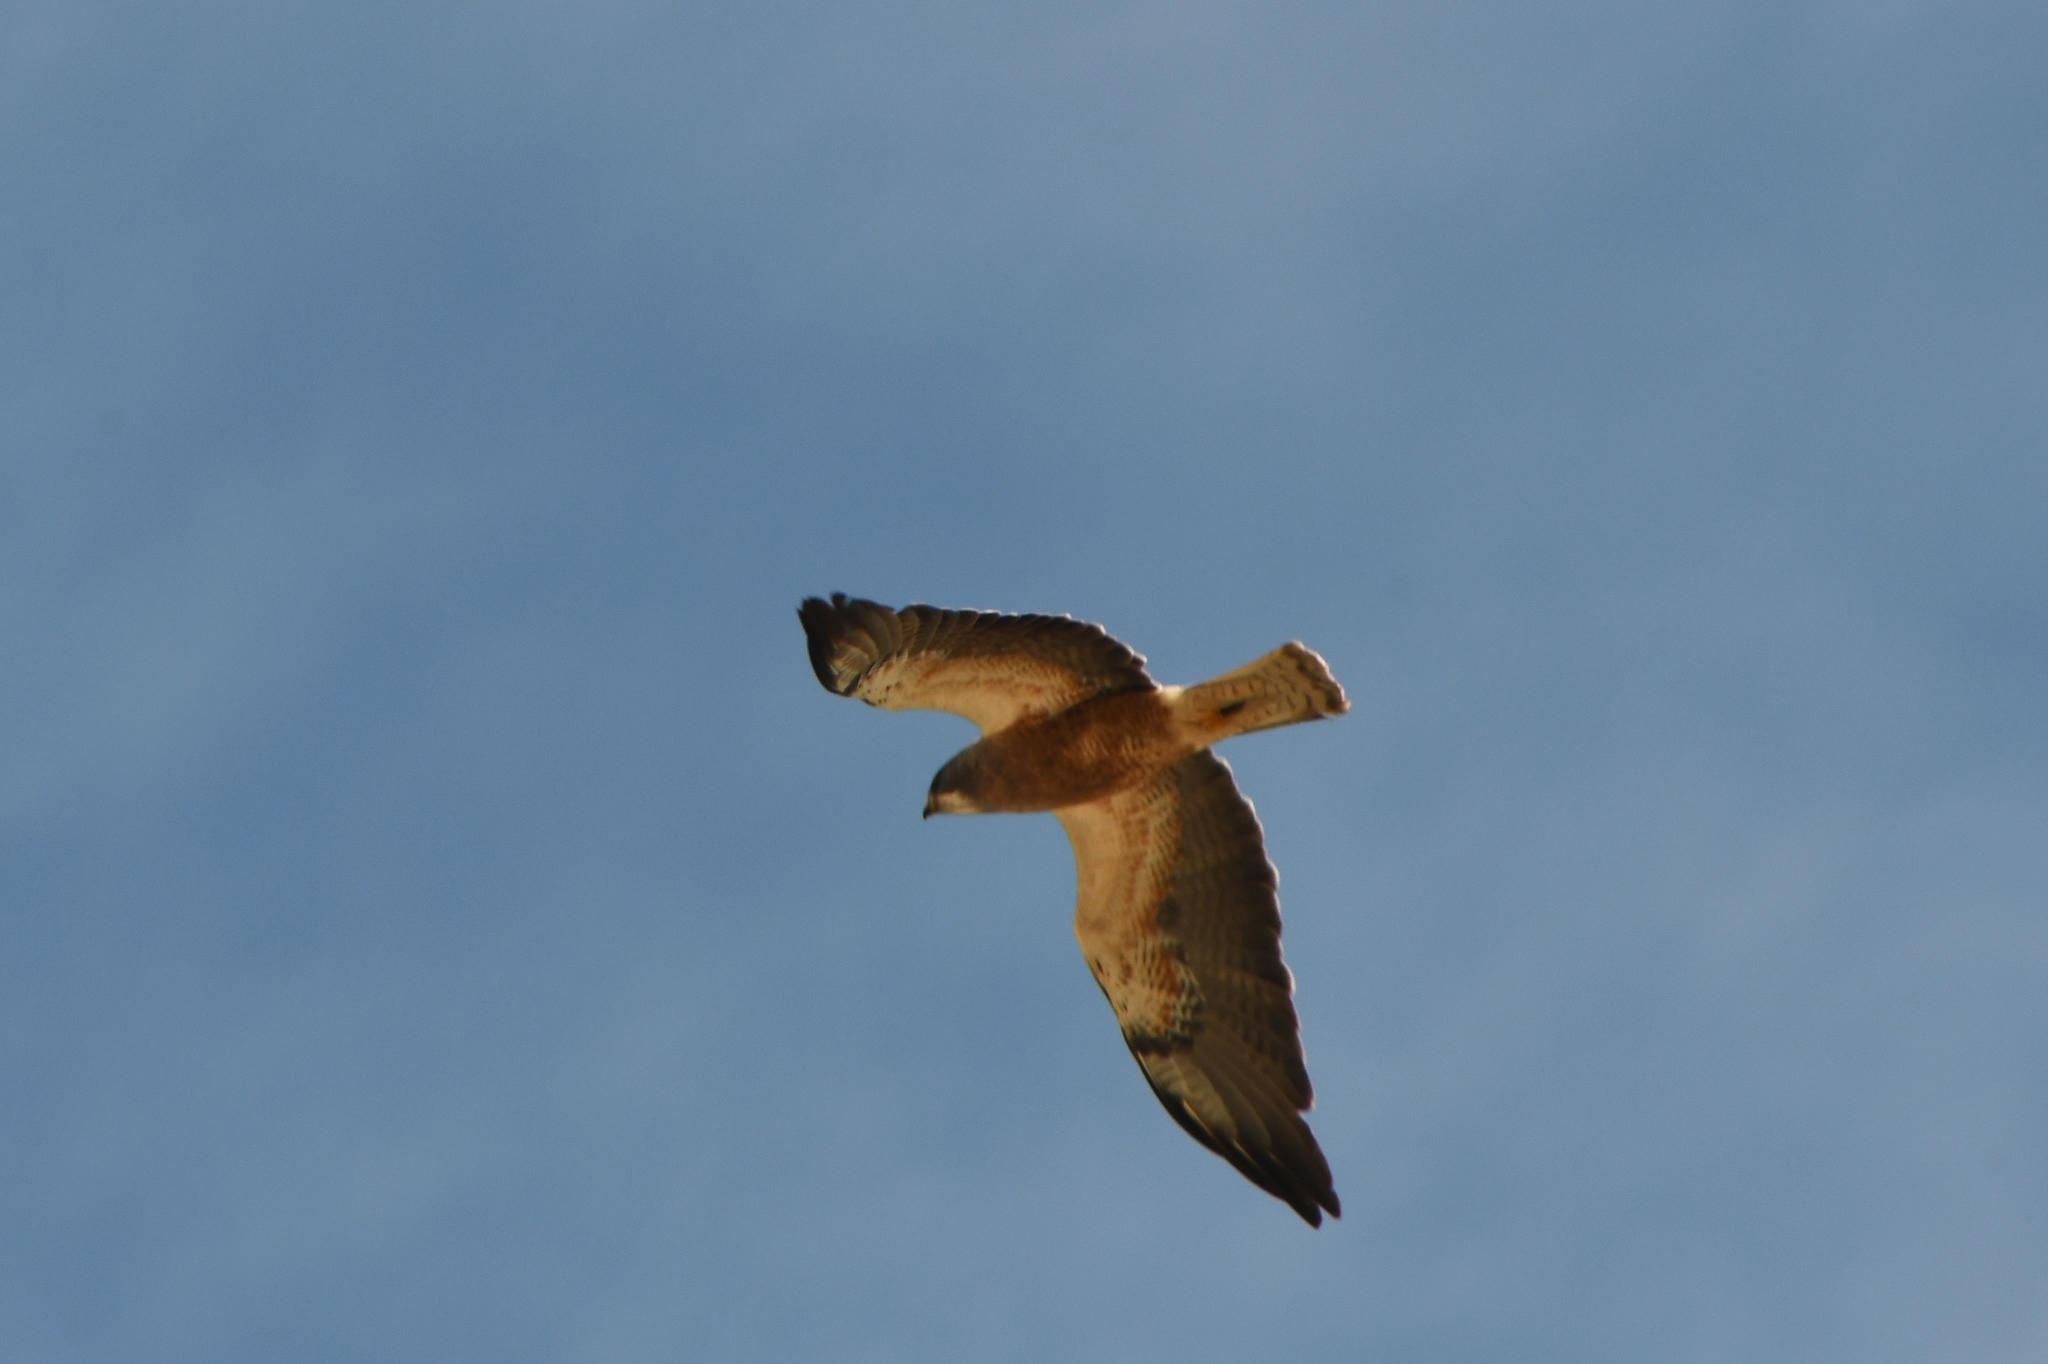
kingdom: Animalia
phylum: Chordata
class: Aves
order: Accipitriformes
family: Accipitridae
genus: Buteo
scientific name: Buteo swainsoni
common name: Swainson's hawk
